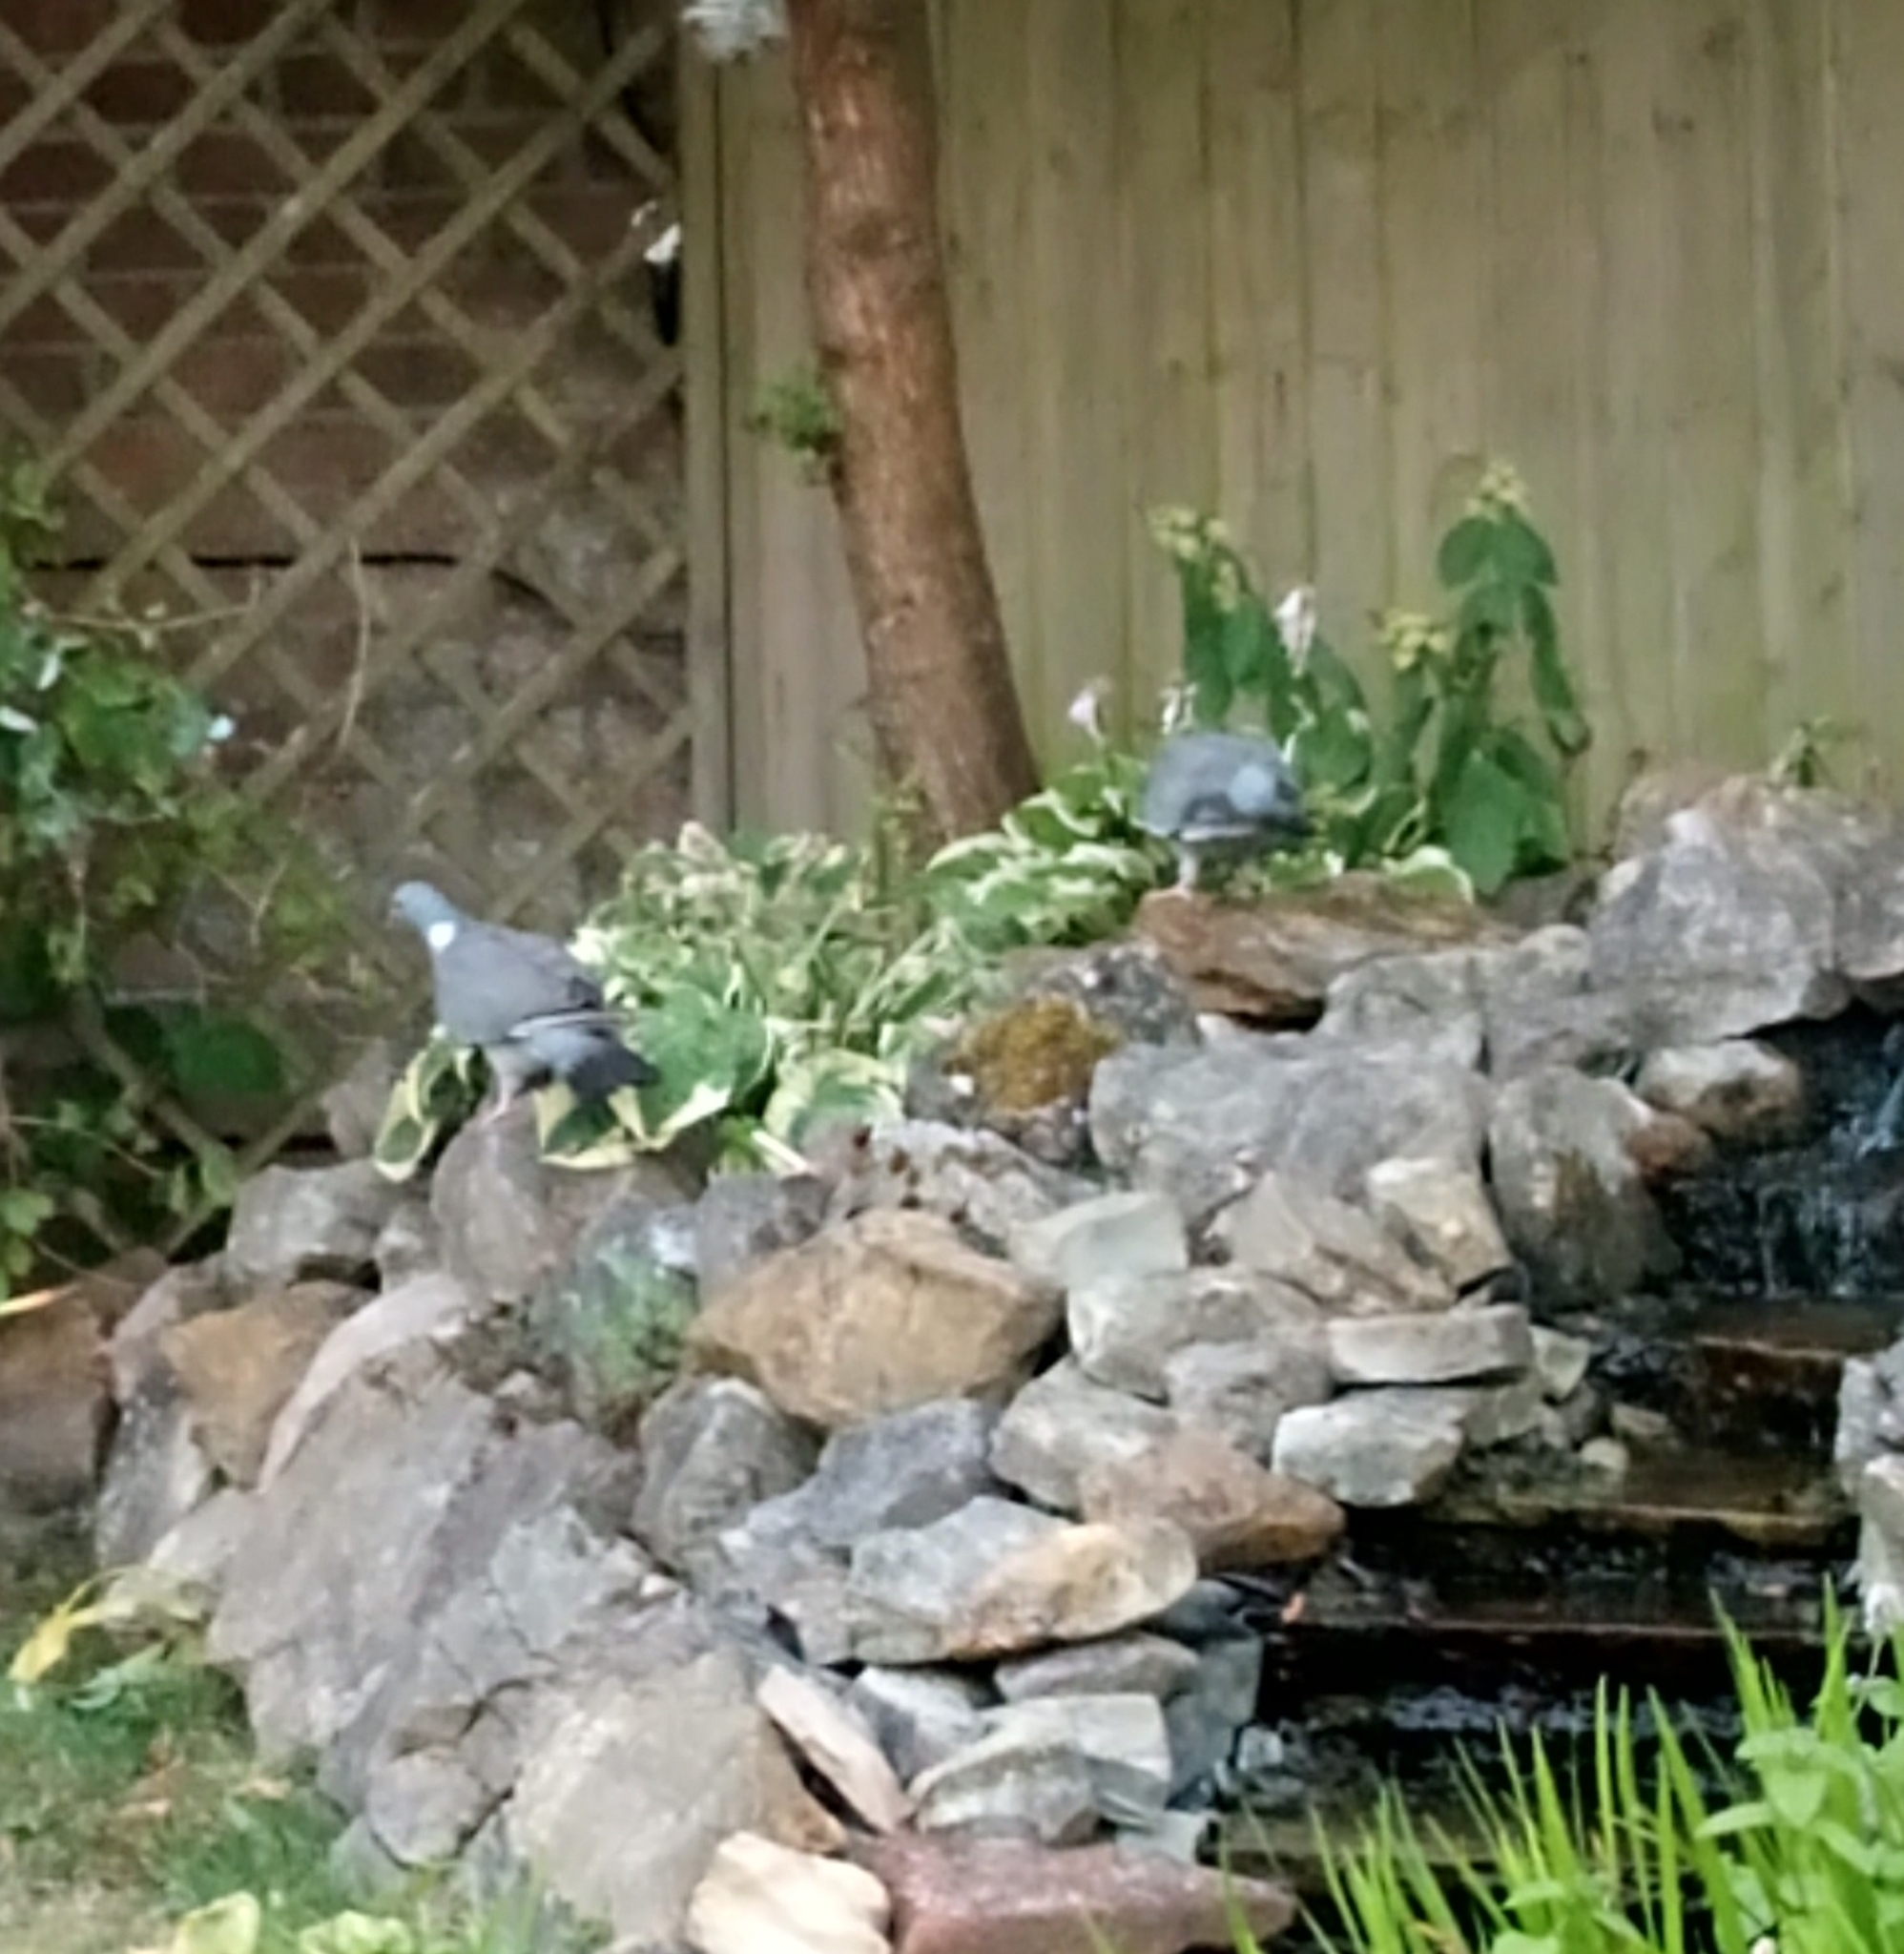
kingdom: Animalia
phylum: Chordata
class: Aves
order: Columbiformes
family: Columbidae
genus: Columba
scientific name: Columba palumbus
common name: Common wood pigeon
